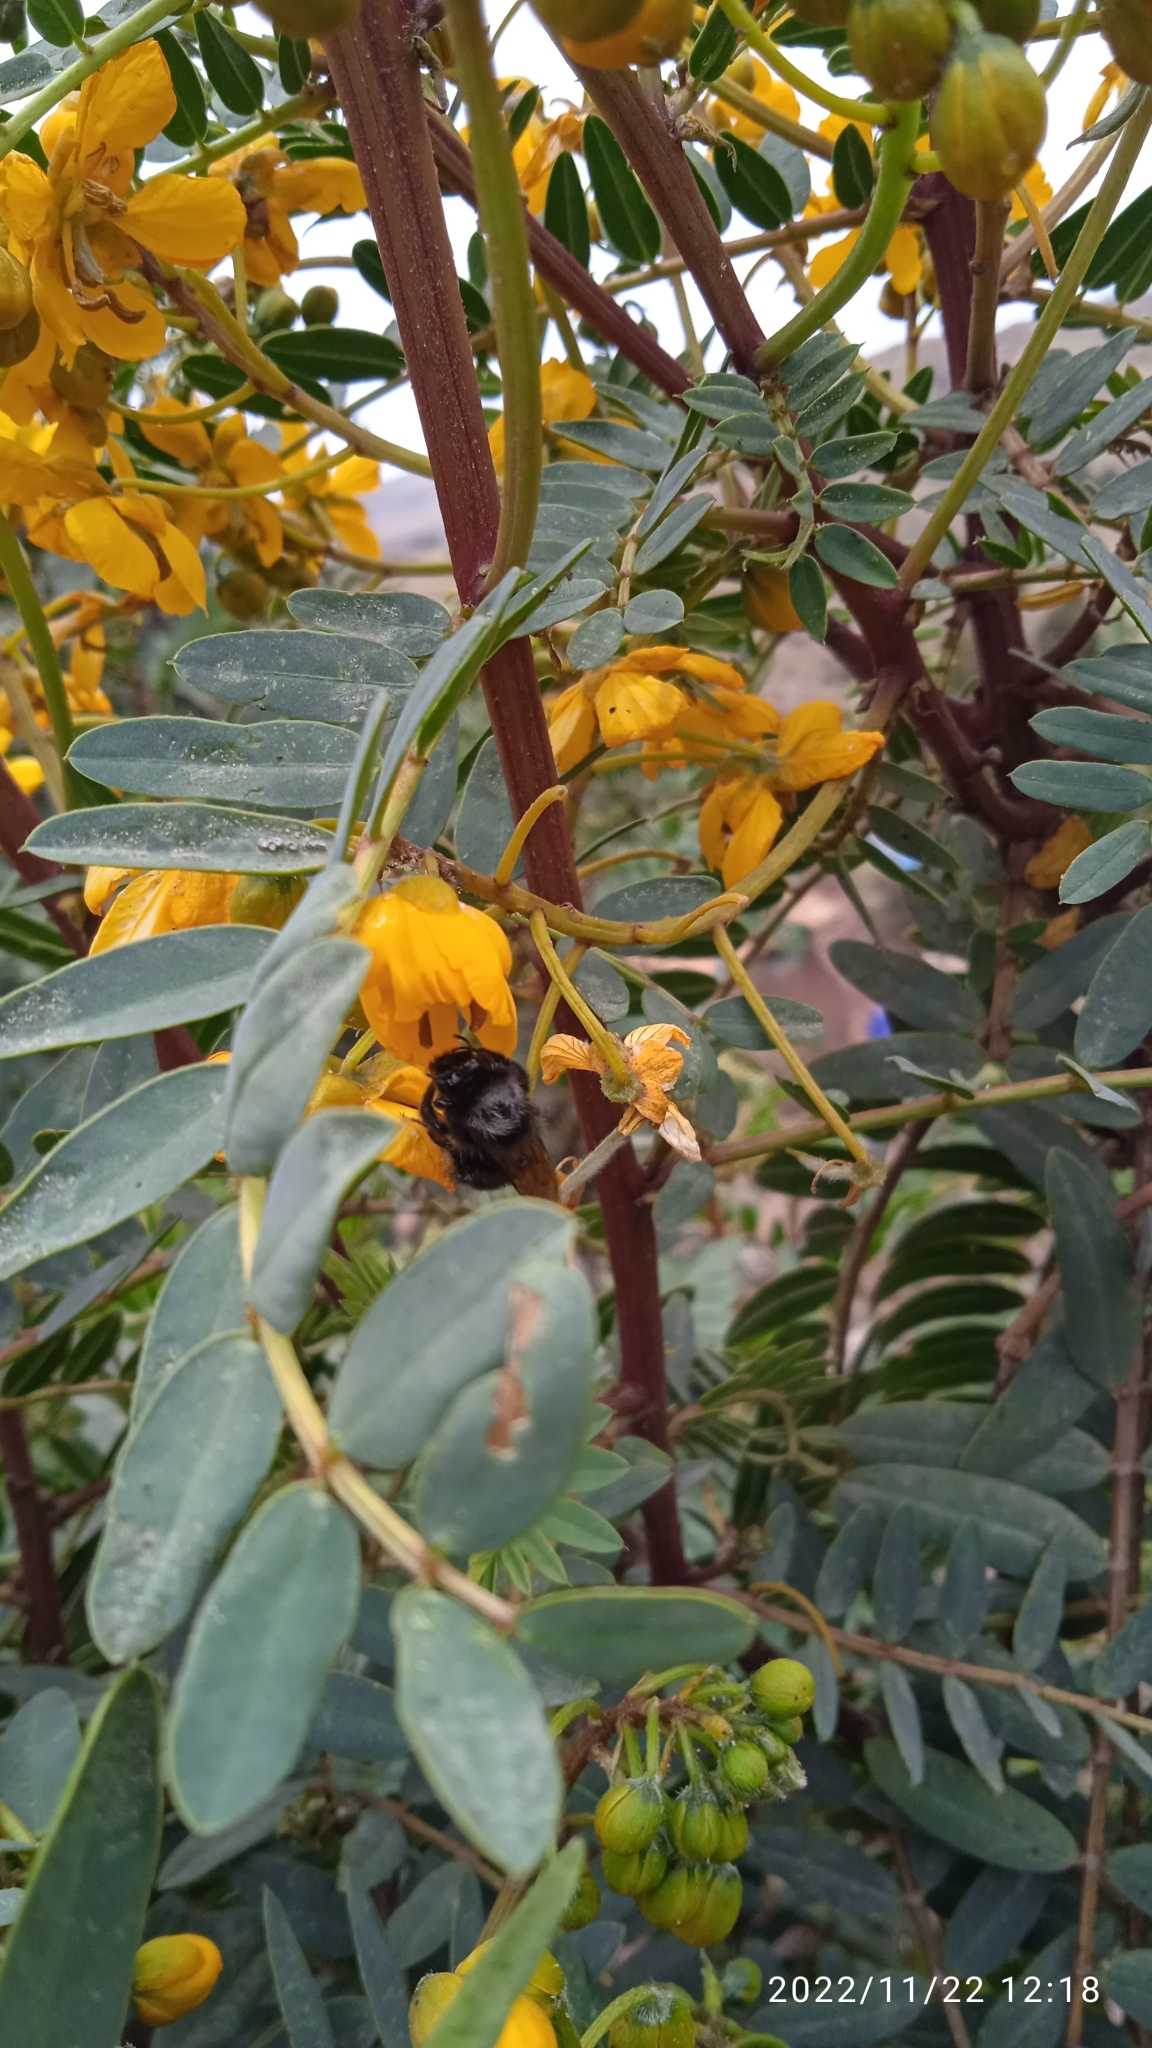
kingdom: Animalia
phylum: Arthropoda
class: Insecta
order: Hymenoptera
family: Apidae
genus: Bombus
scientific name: Bombus funebris
